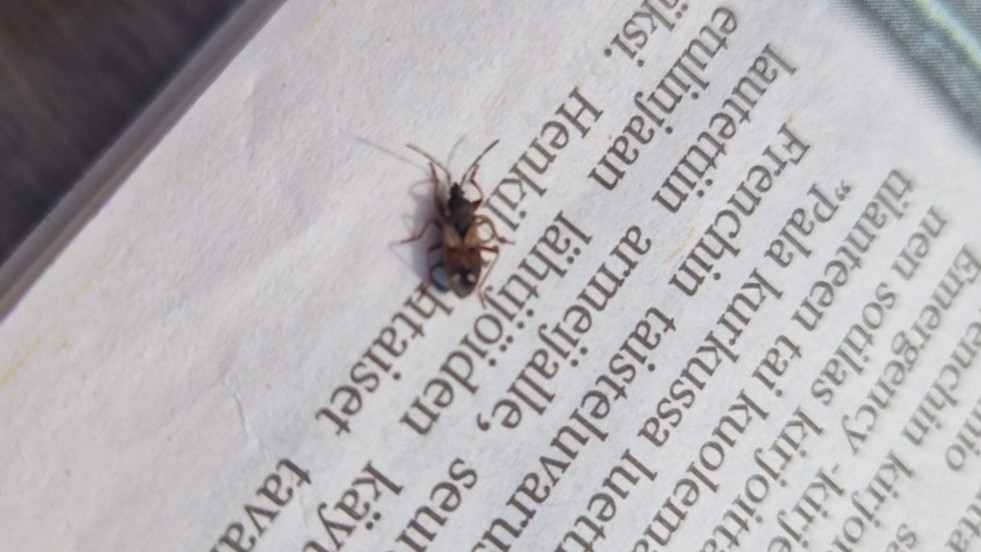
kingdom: Animalia
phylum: Arthropoda
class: Insecta
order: Hemiptera
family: Rhyparochromidae
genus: Eremocoris
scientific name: Eremocoris abietis
